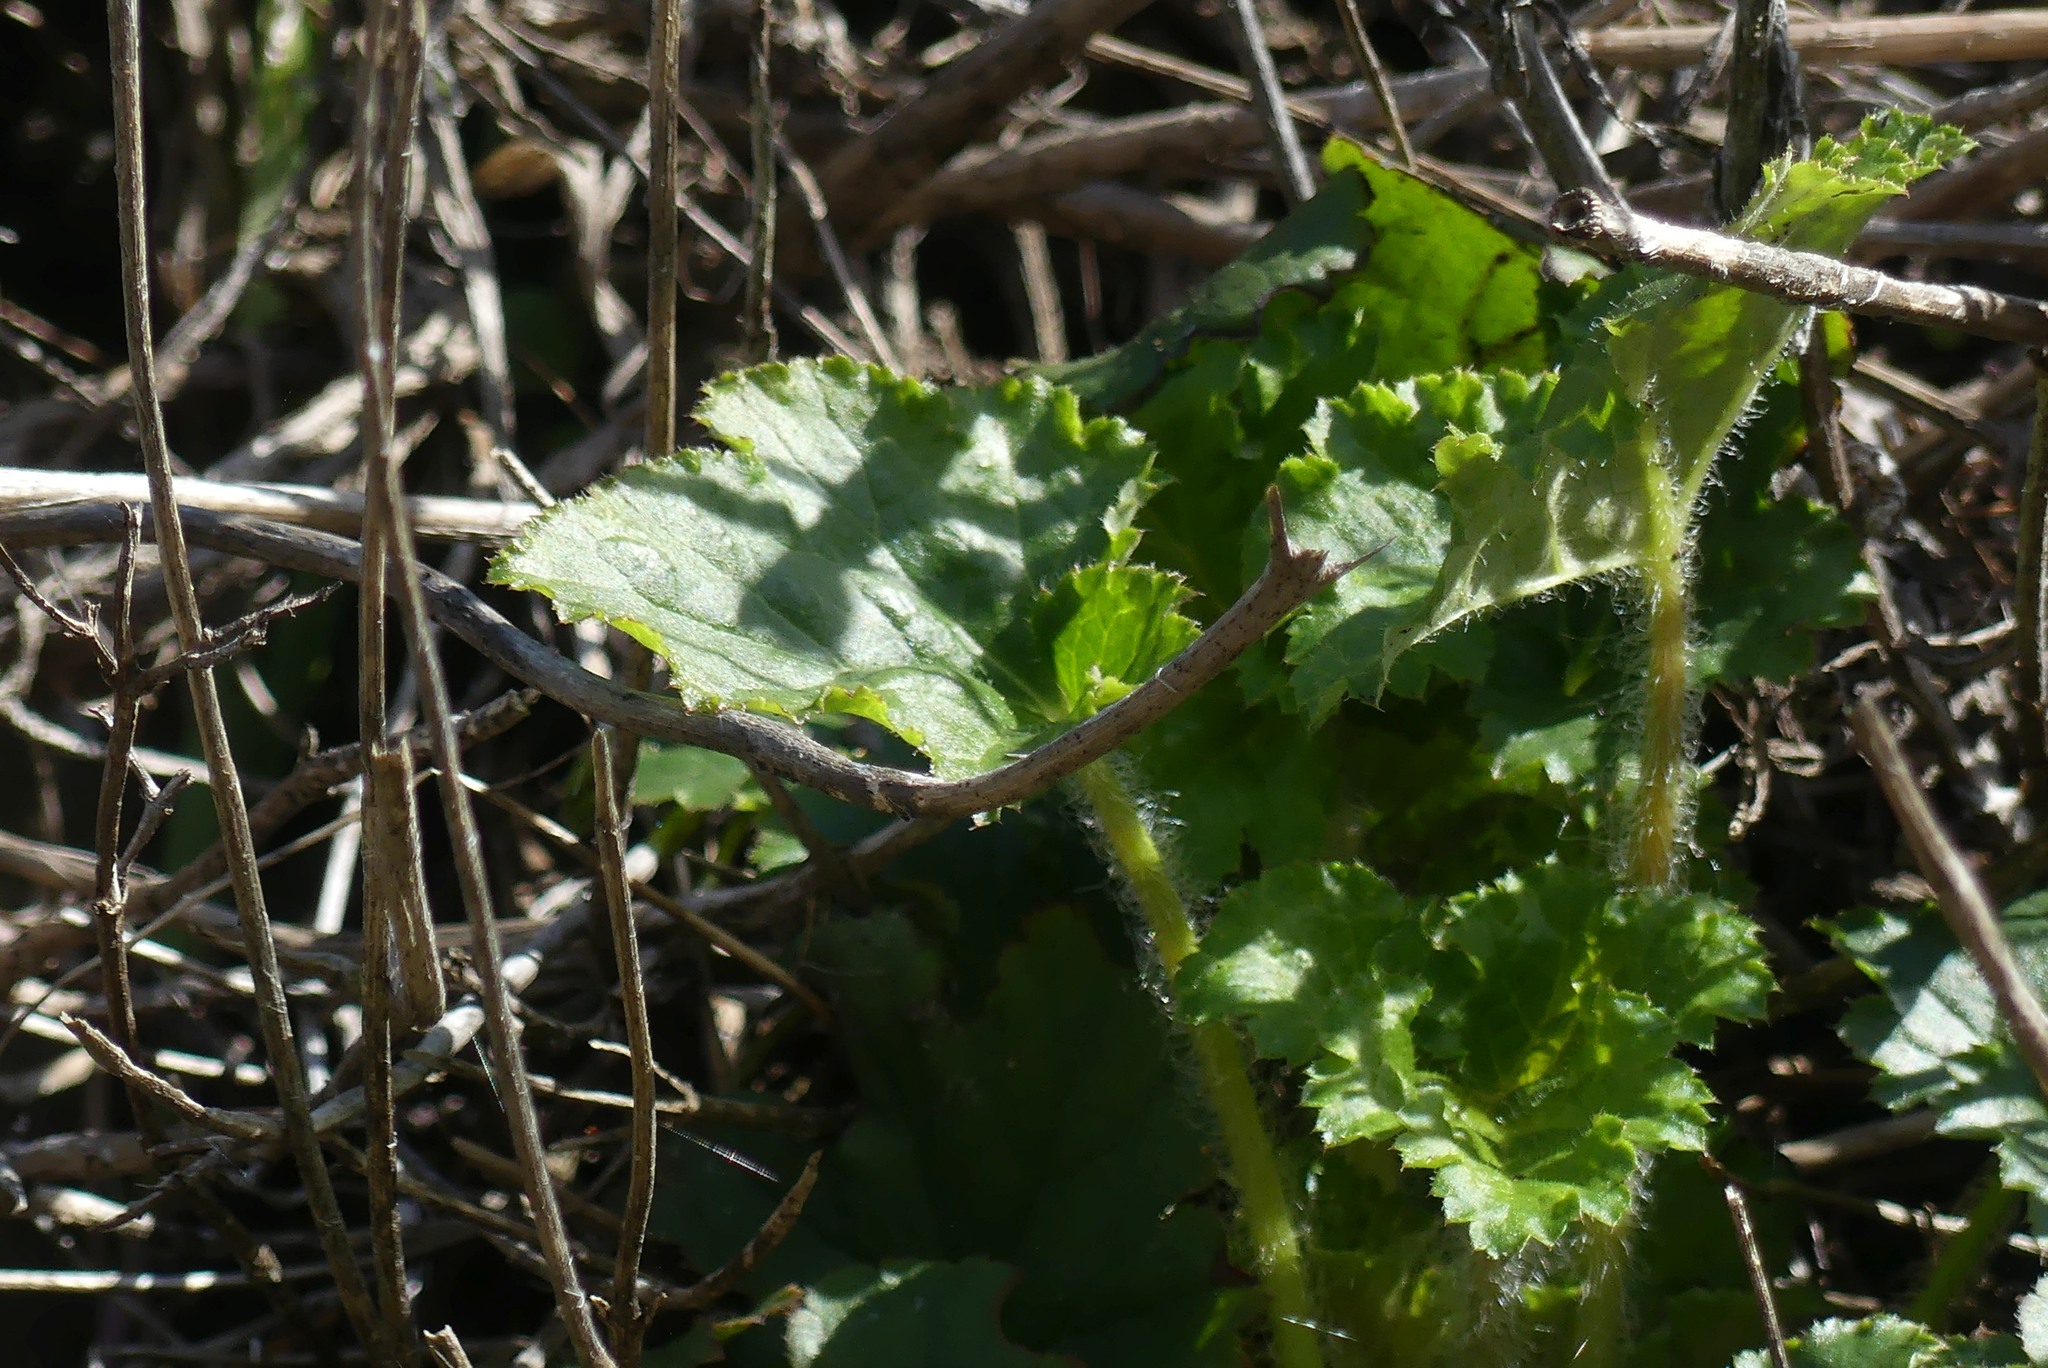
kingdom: Plantae
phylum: Tracheophyta
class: Magnoliopsida
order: Saxifragales
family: Saxifragaceae
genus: Heuchera
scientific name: Heuchera micrantha
